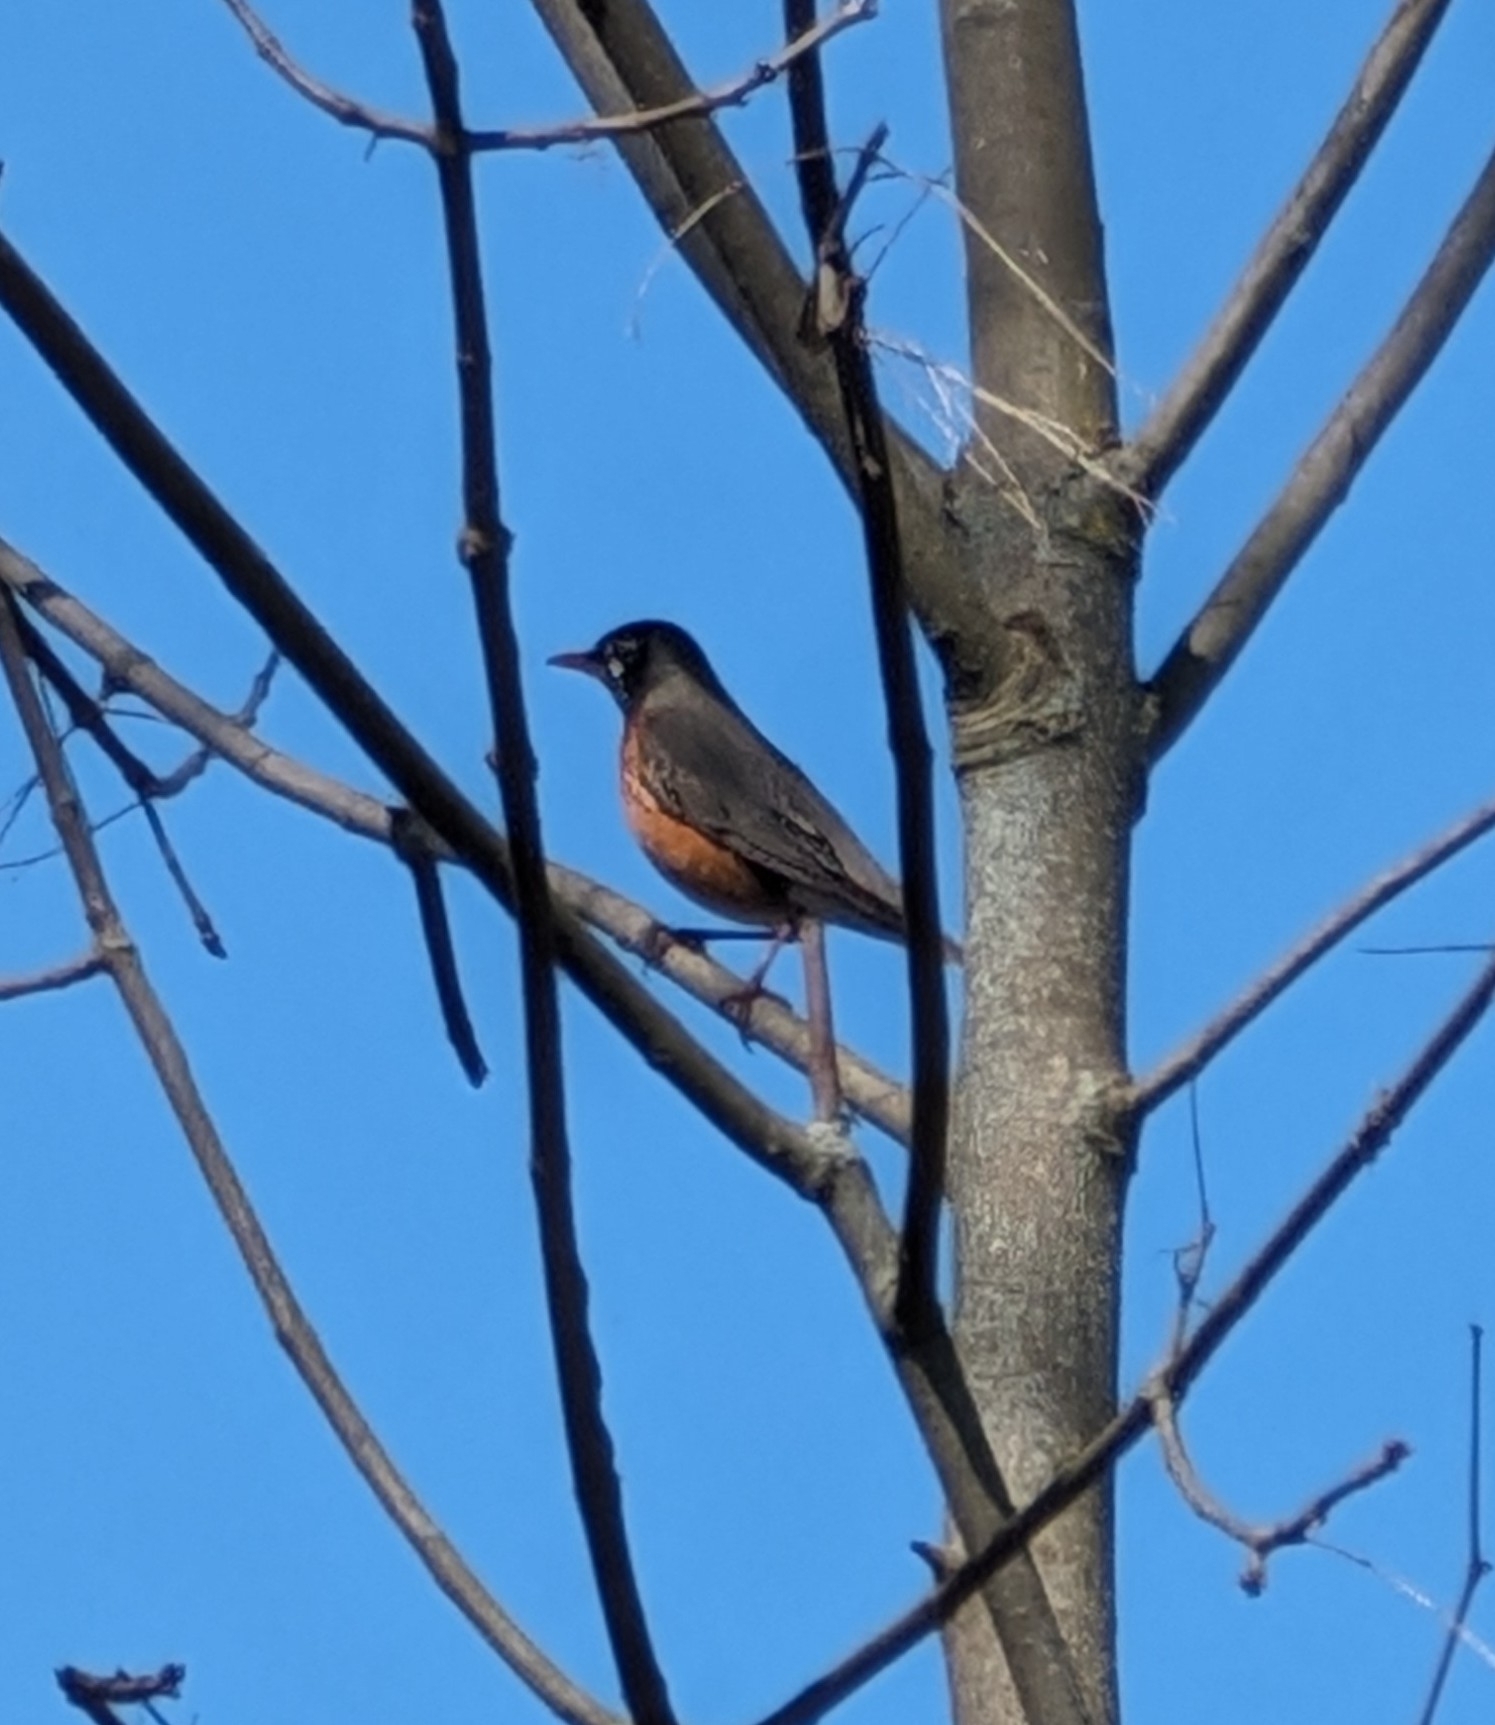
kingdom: Animalia
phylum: Chordata
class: Aves
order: Passeriformes
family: Turdidae
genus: Turdus
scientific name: Turdus migratorius
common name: American robin
